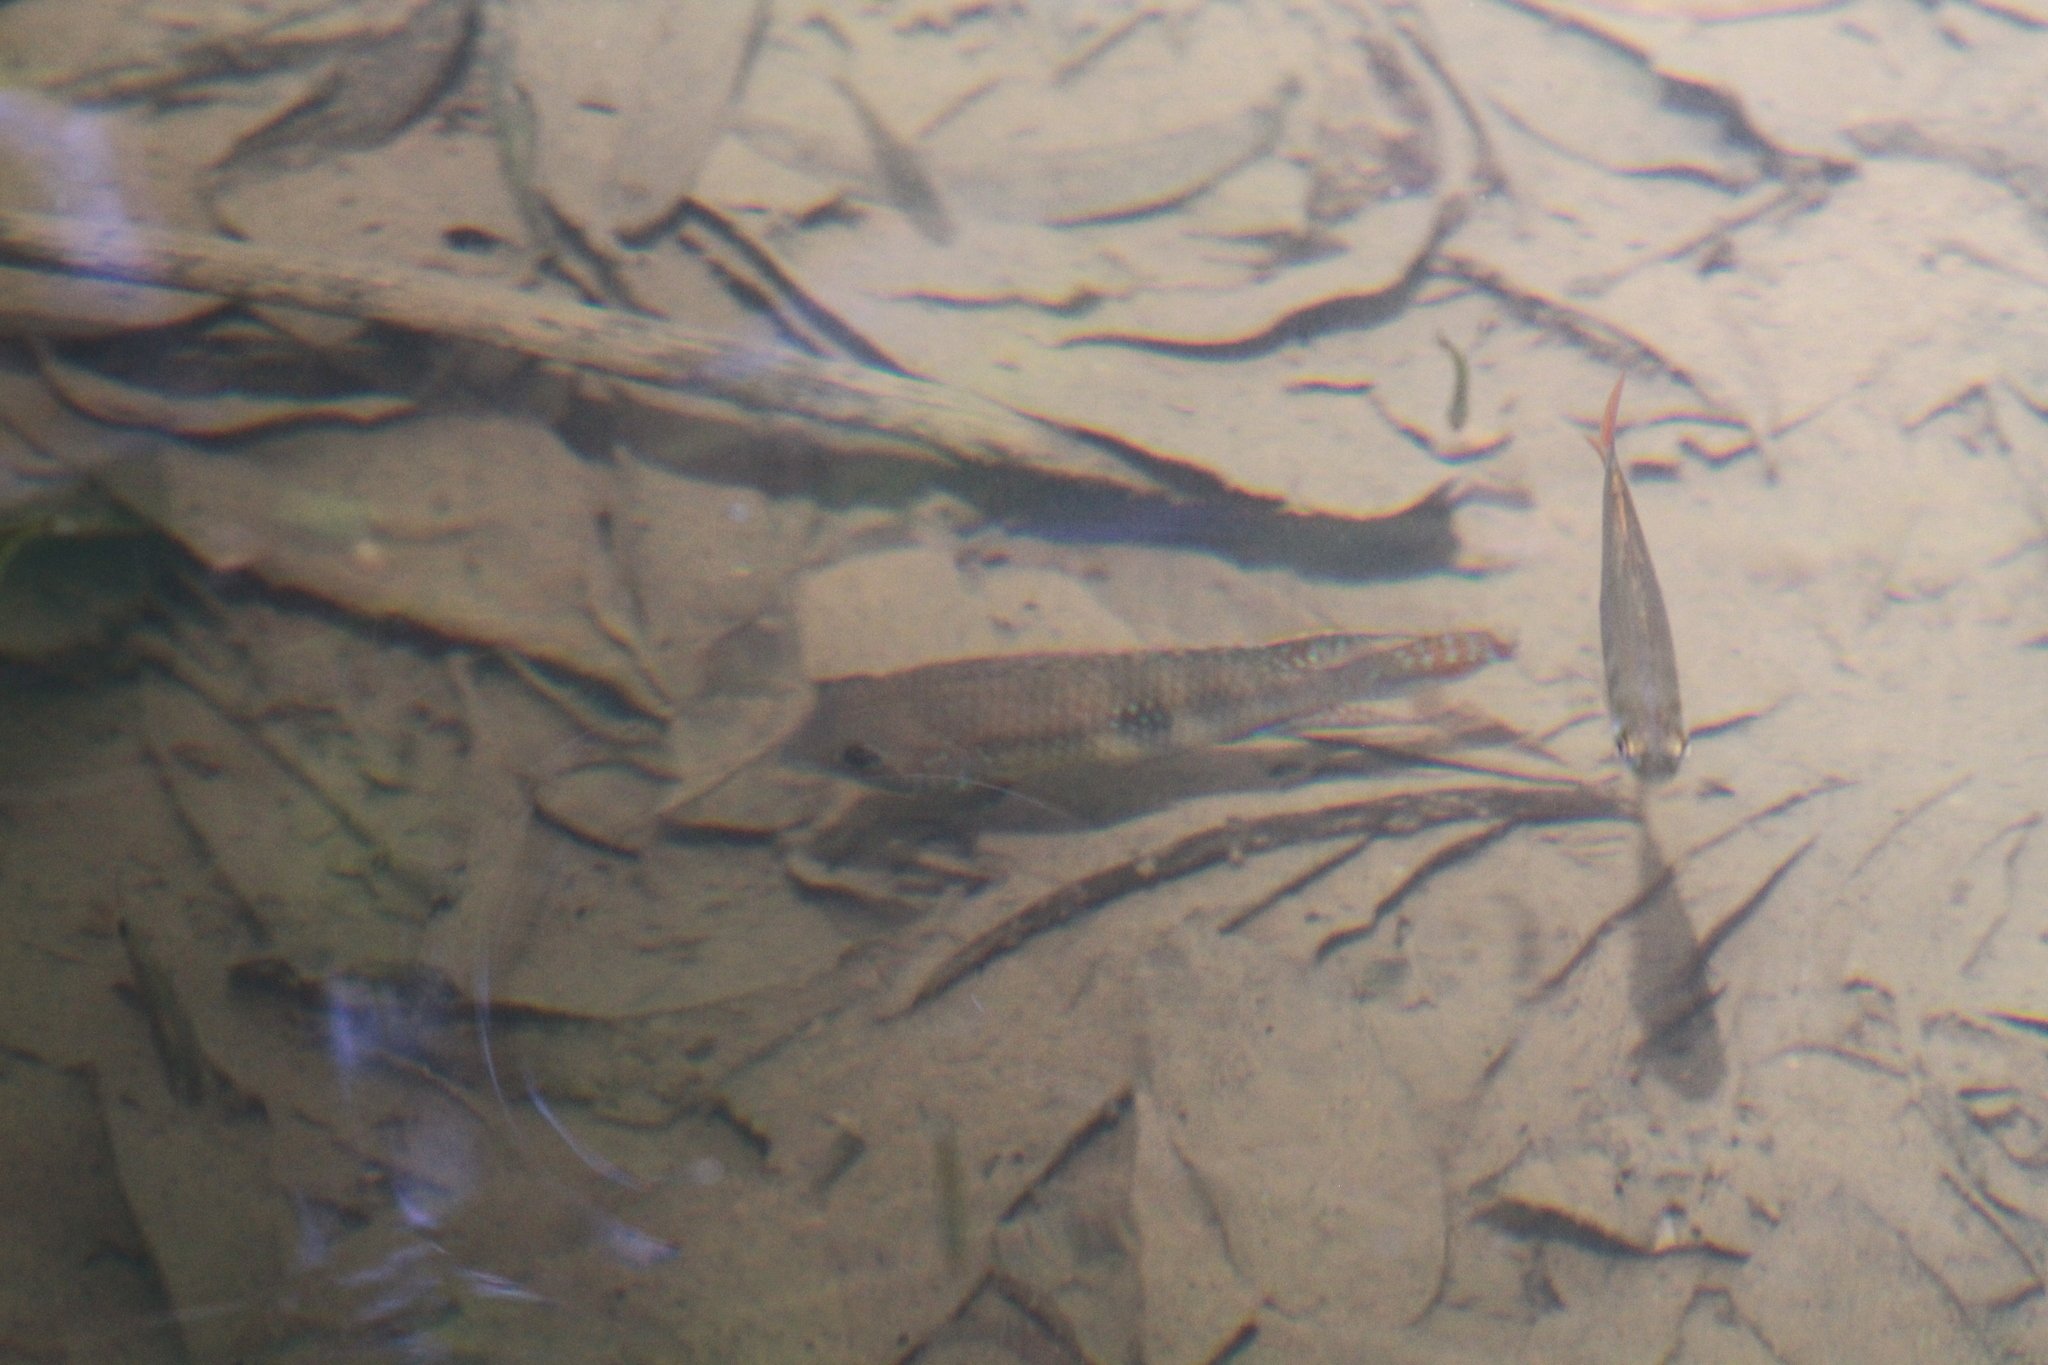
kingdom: Animalia
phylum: Chordata
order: Perciformes
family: Cichlidae
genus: Andinoacara
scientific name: Andinoacara coeruleopunctatus
